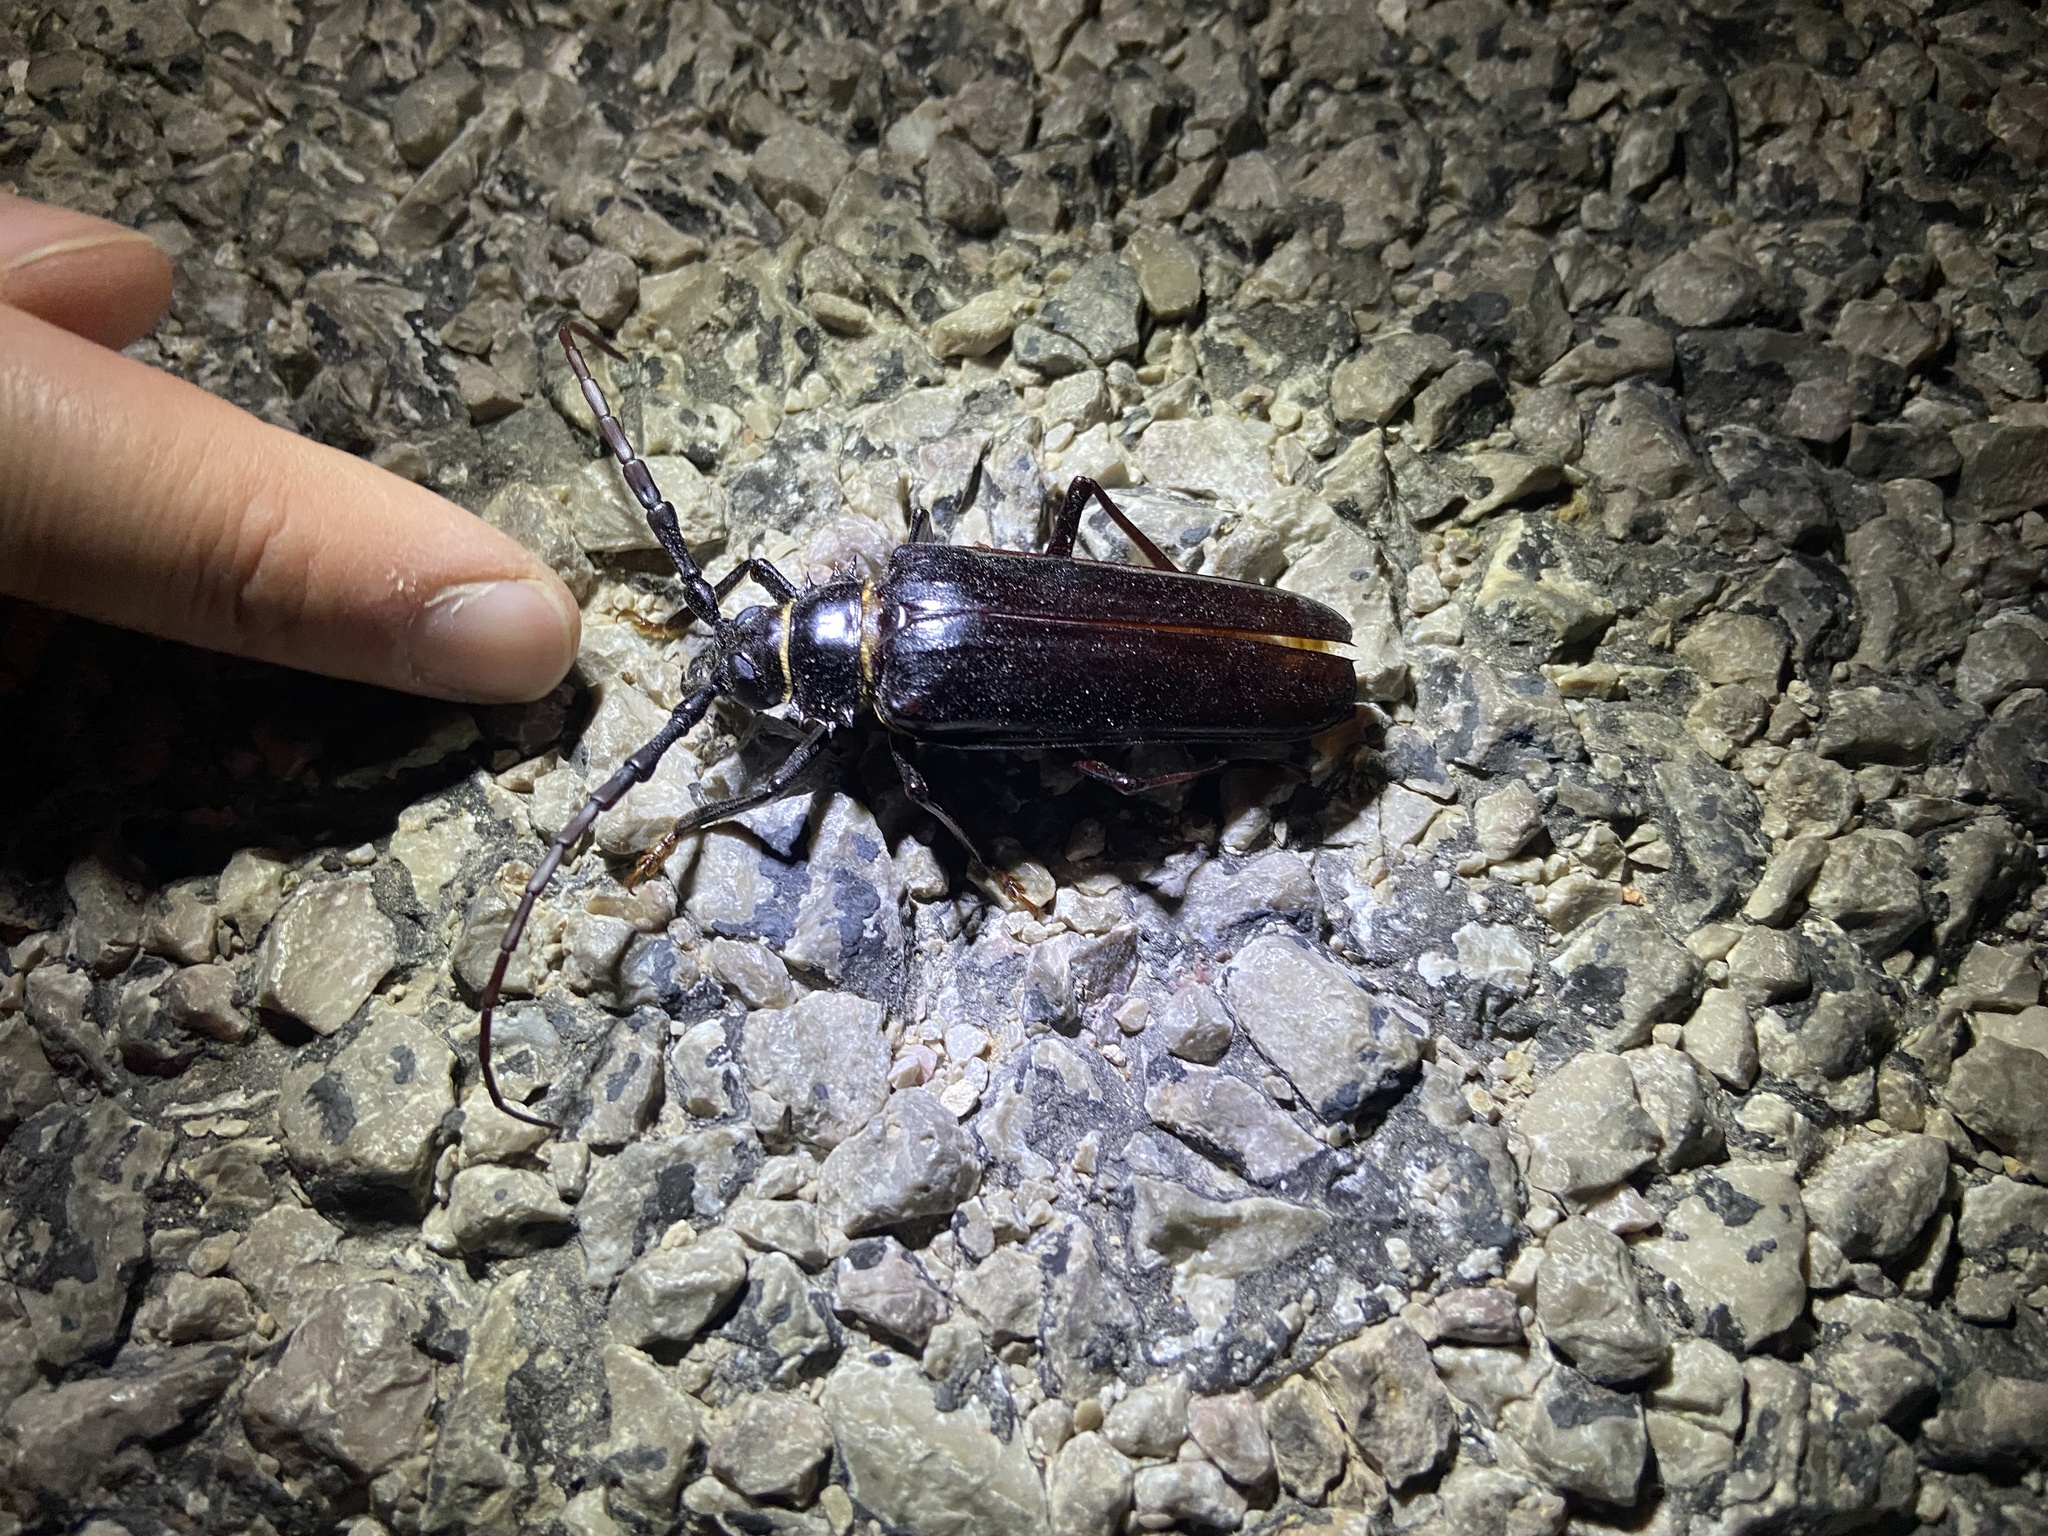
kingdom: Animalia
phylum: Arthropoda
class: Insecta
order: Coleoptera
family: Cerambycidae
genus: Derobrachus
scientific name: Derobrachus hovorei
